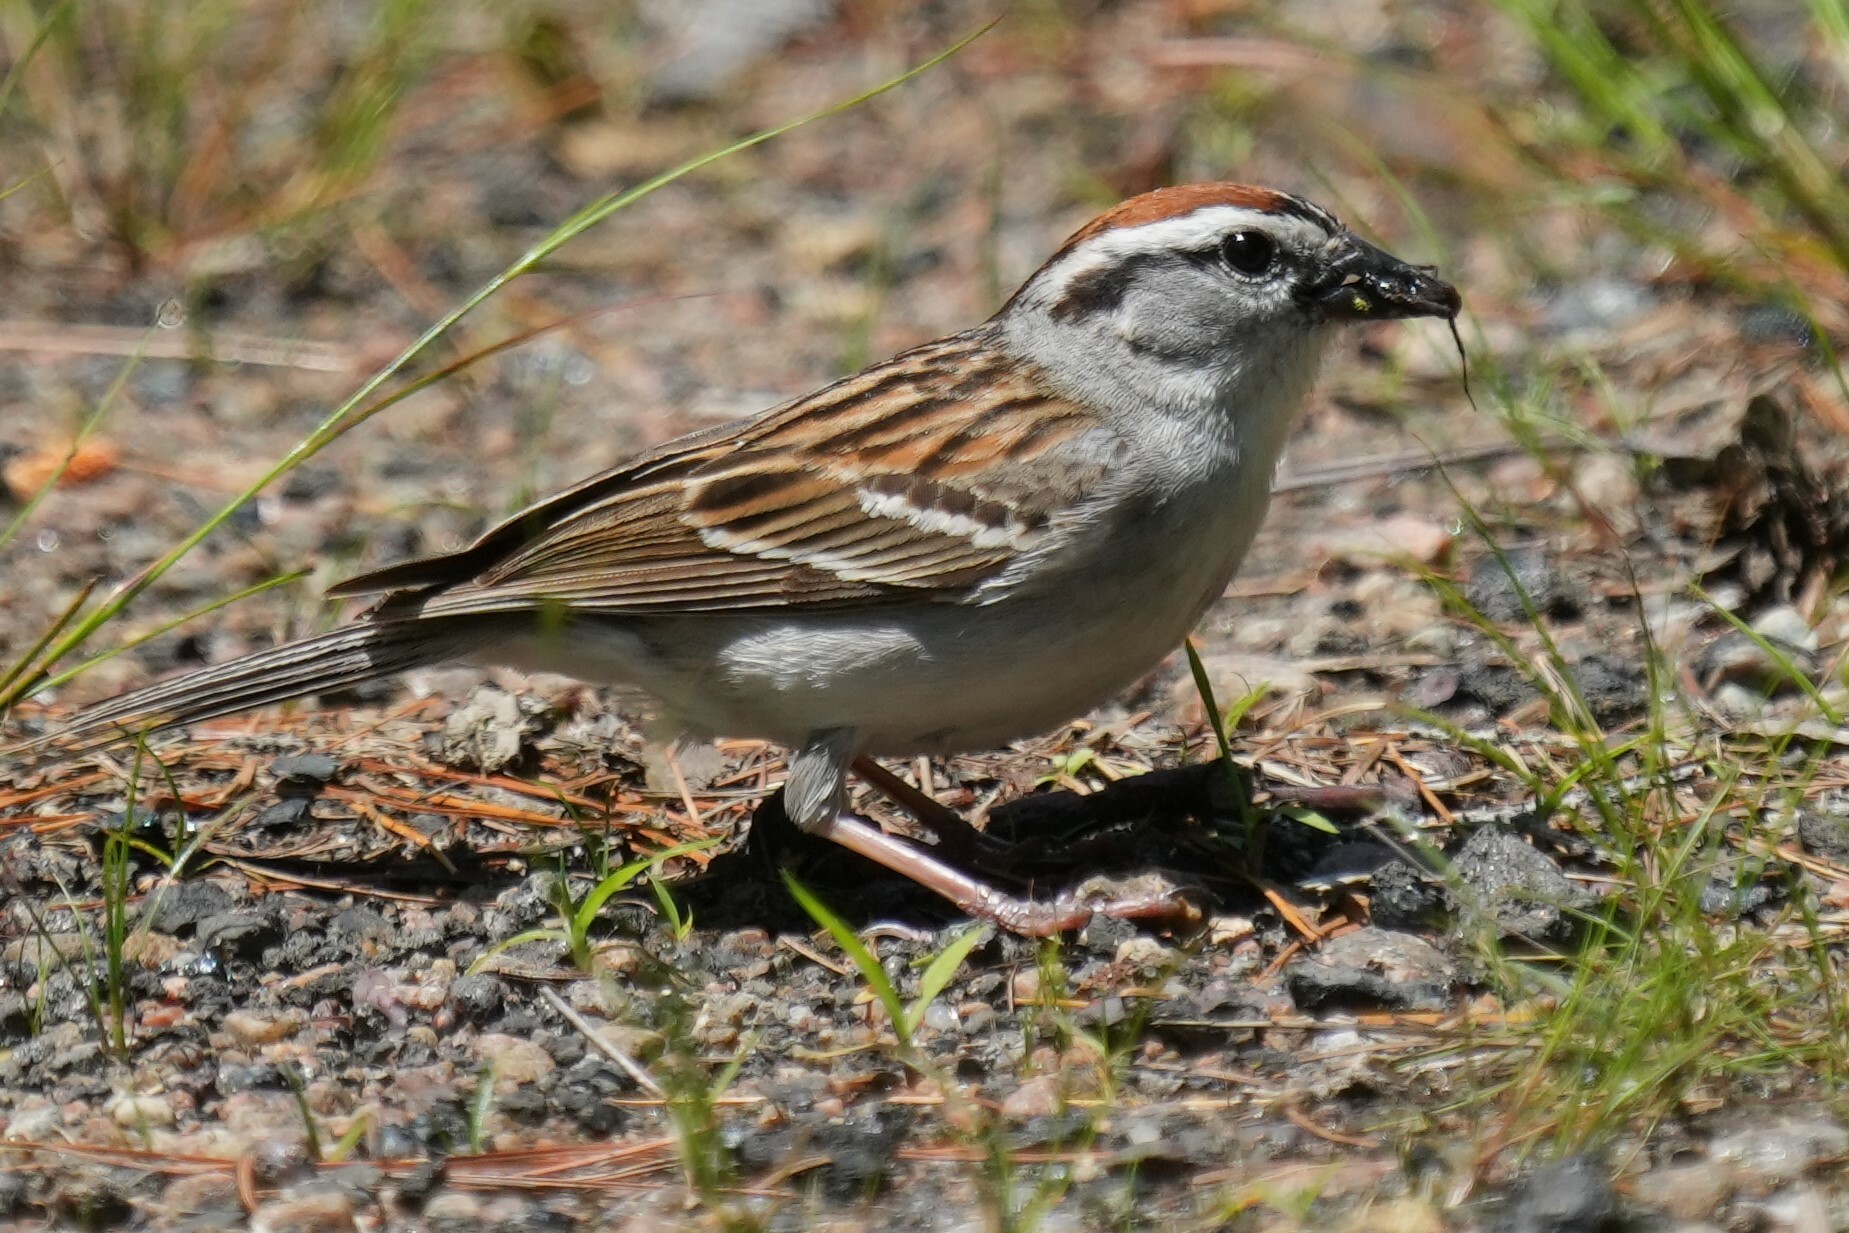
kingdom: Animalia
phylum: Chordata
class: Aves
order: Passeriformes
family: Passerellidae
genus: Spizella
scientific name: Spizella passerina
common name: Chipping sparrow
